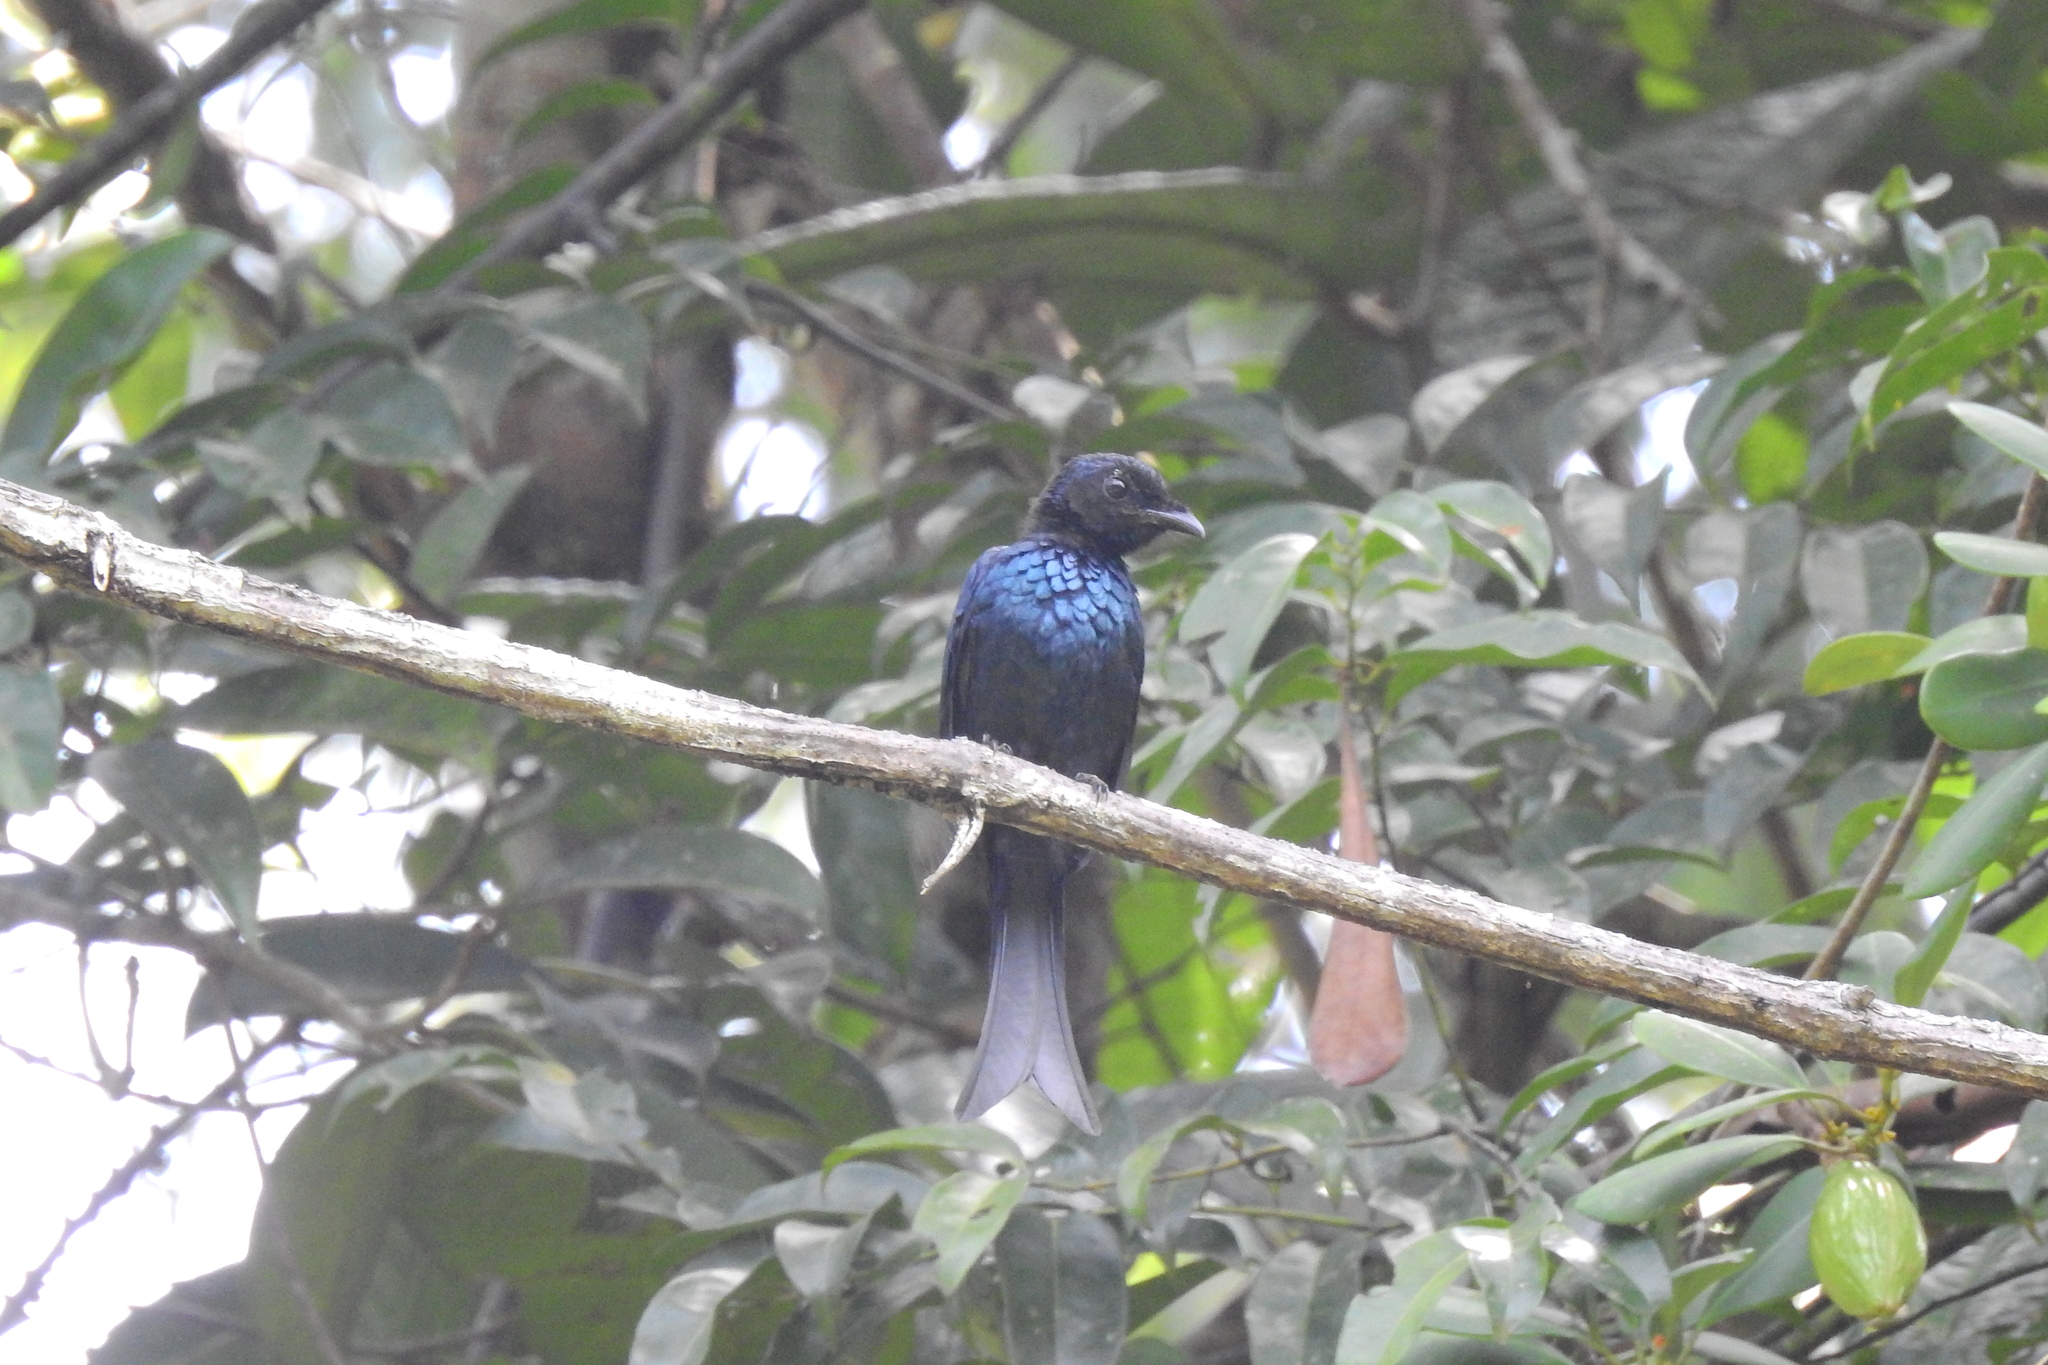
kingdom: Animalia
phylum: Chordata
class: Aves
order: Passeriformes
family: Dicruridae
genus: Dicrurus
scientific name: Dicrurus aeneus
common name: Bronzed drongo
